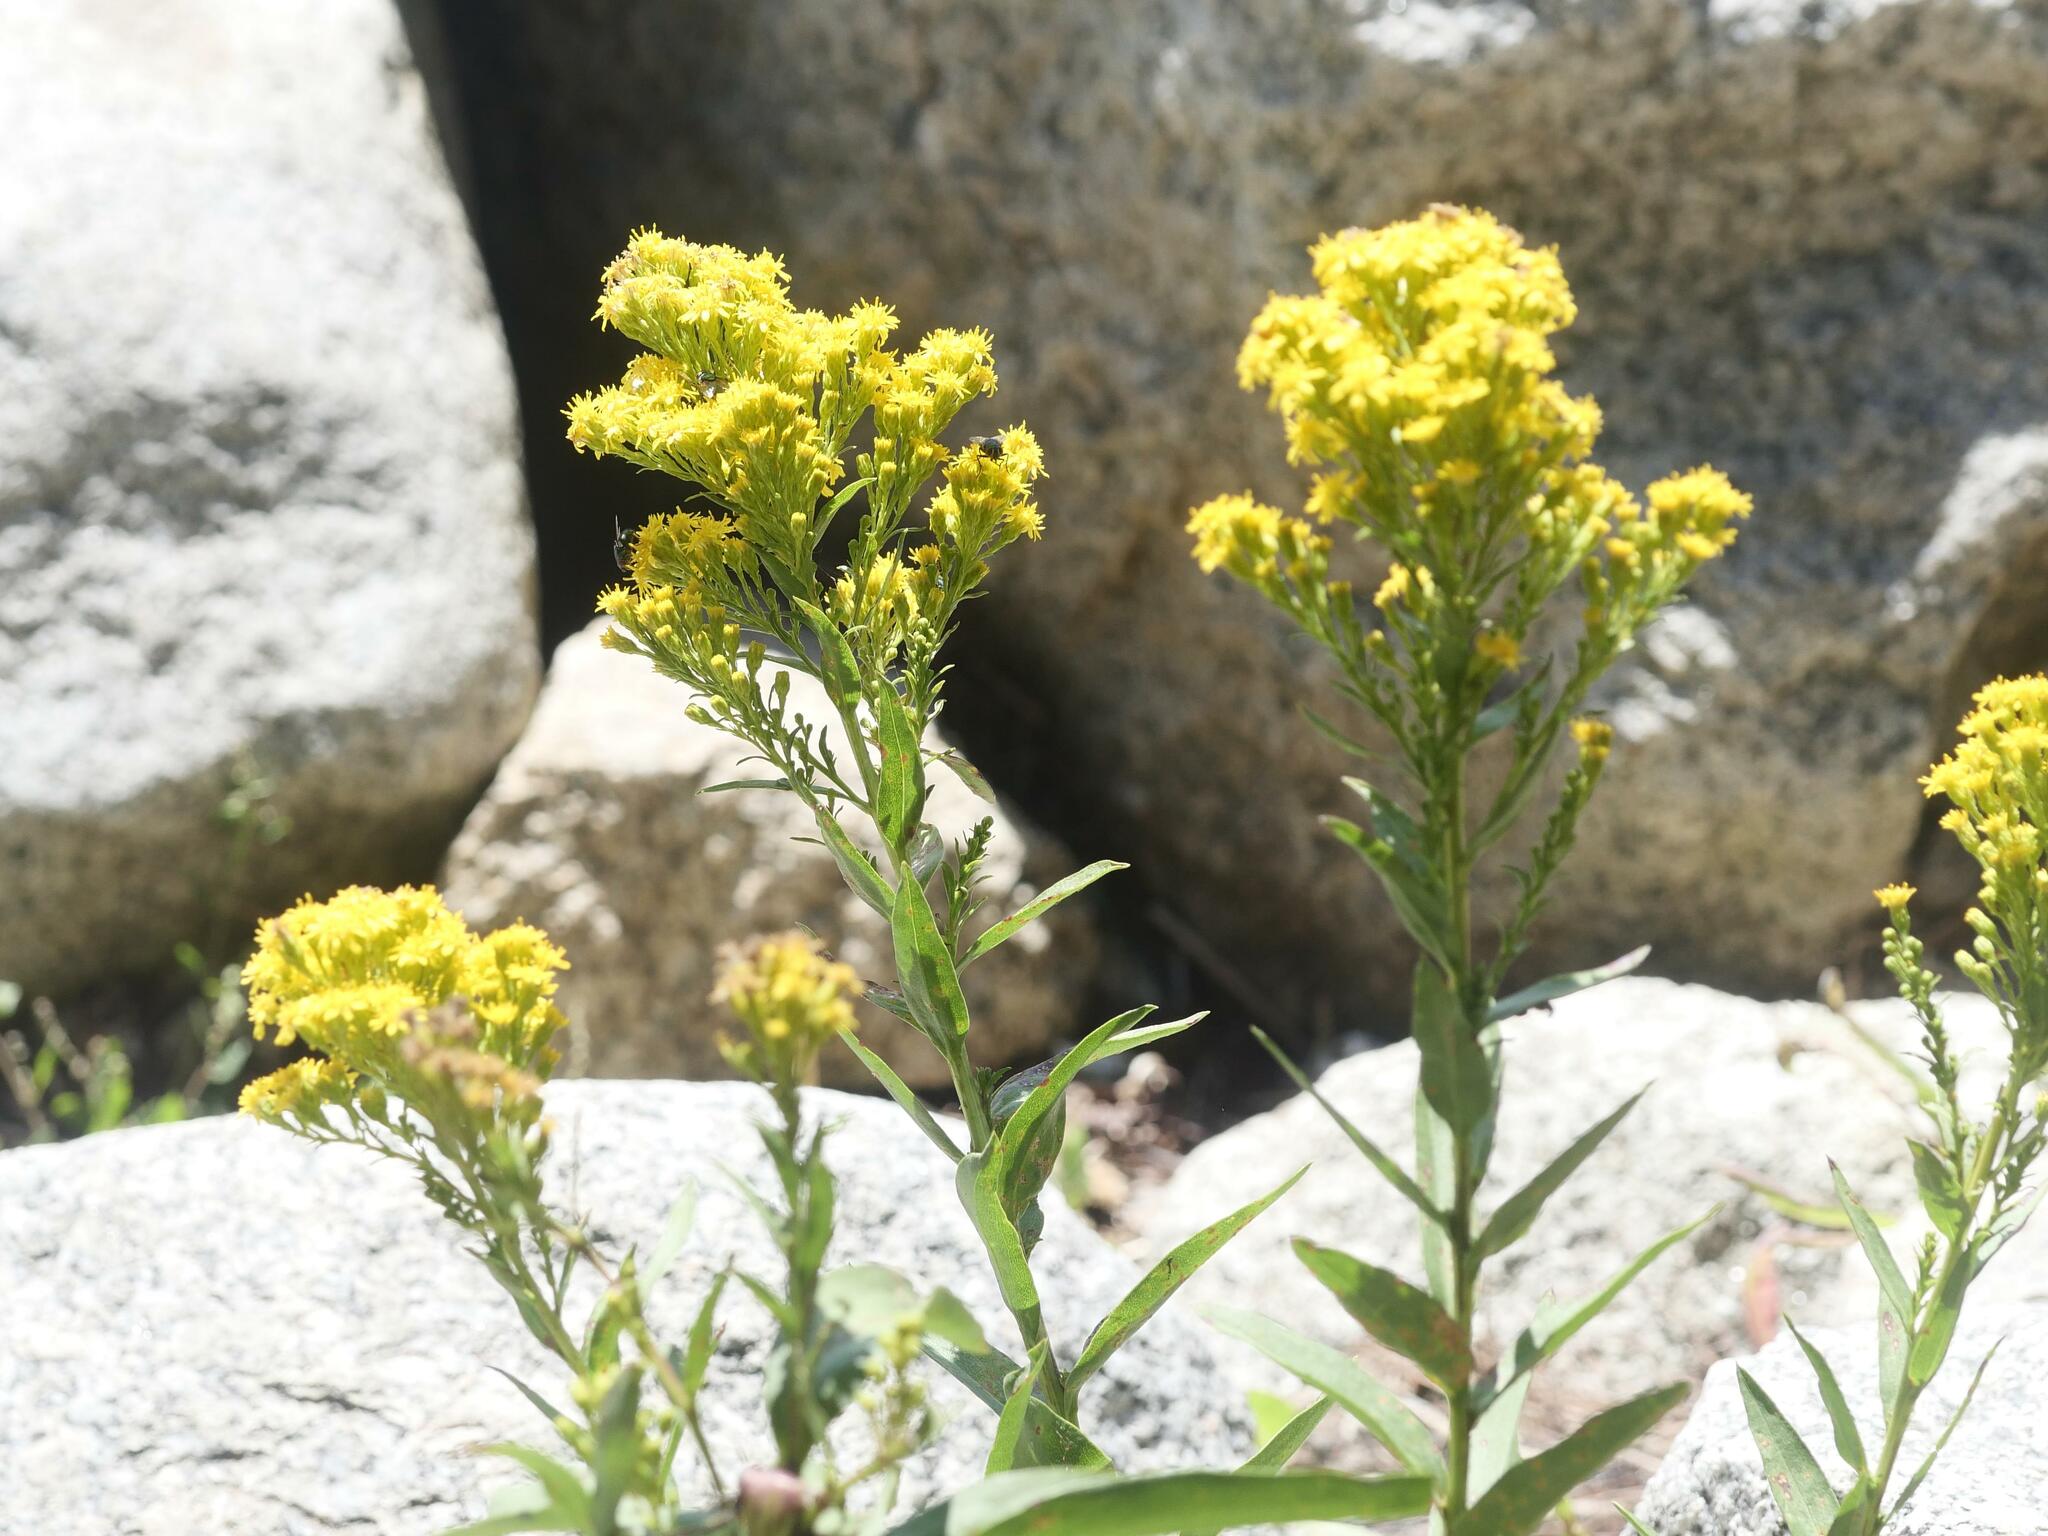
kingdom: Plantae
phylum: Tracheophyta
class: Magnoliopsida
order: Asterales
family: Asteraceae
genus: Solidago
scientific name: Solidago sempervirens
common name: Salt-marsh goldenrod
